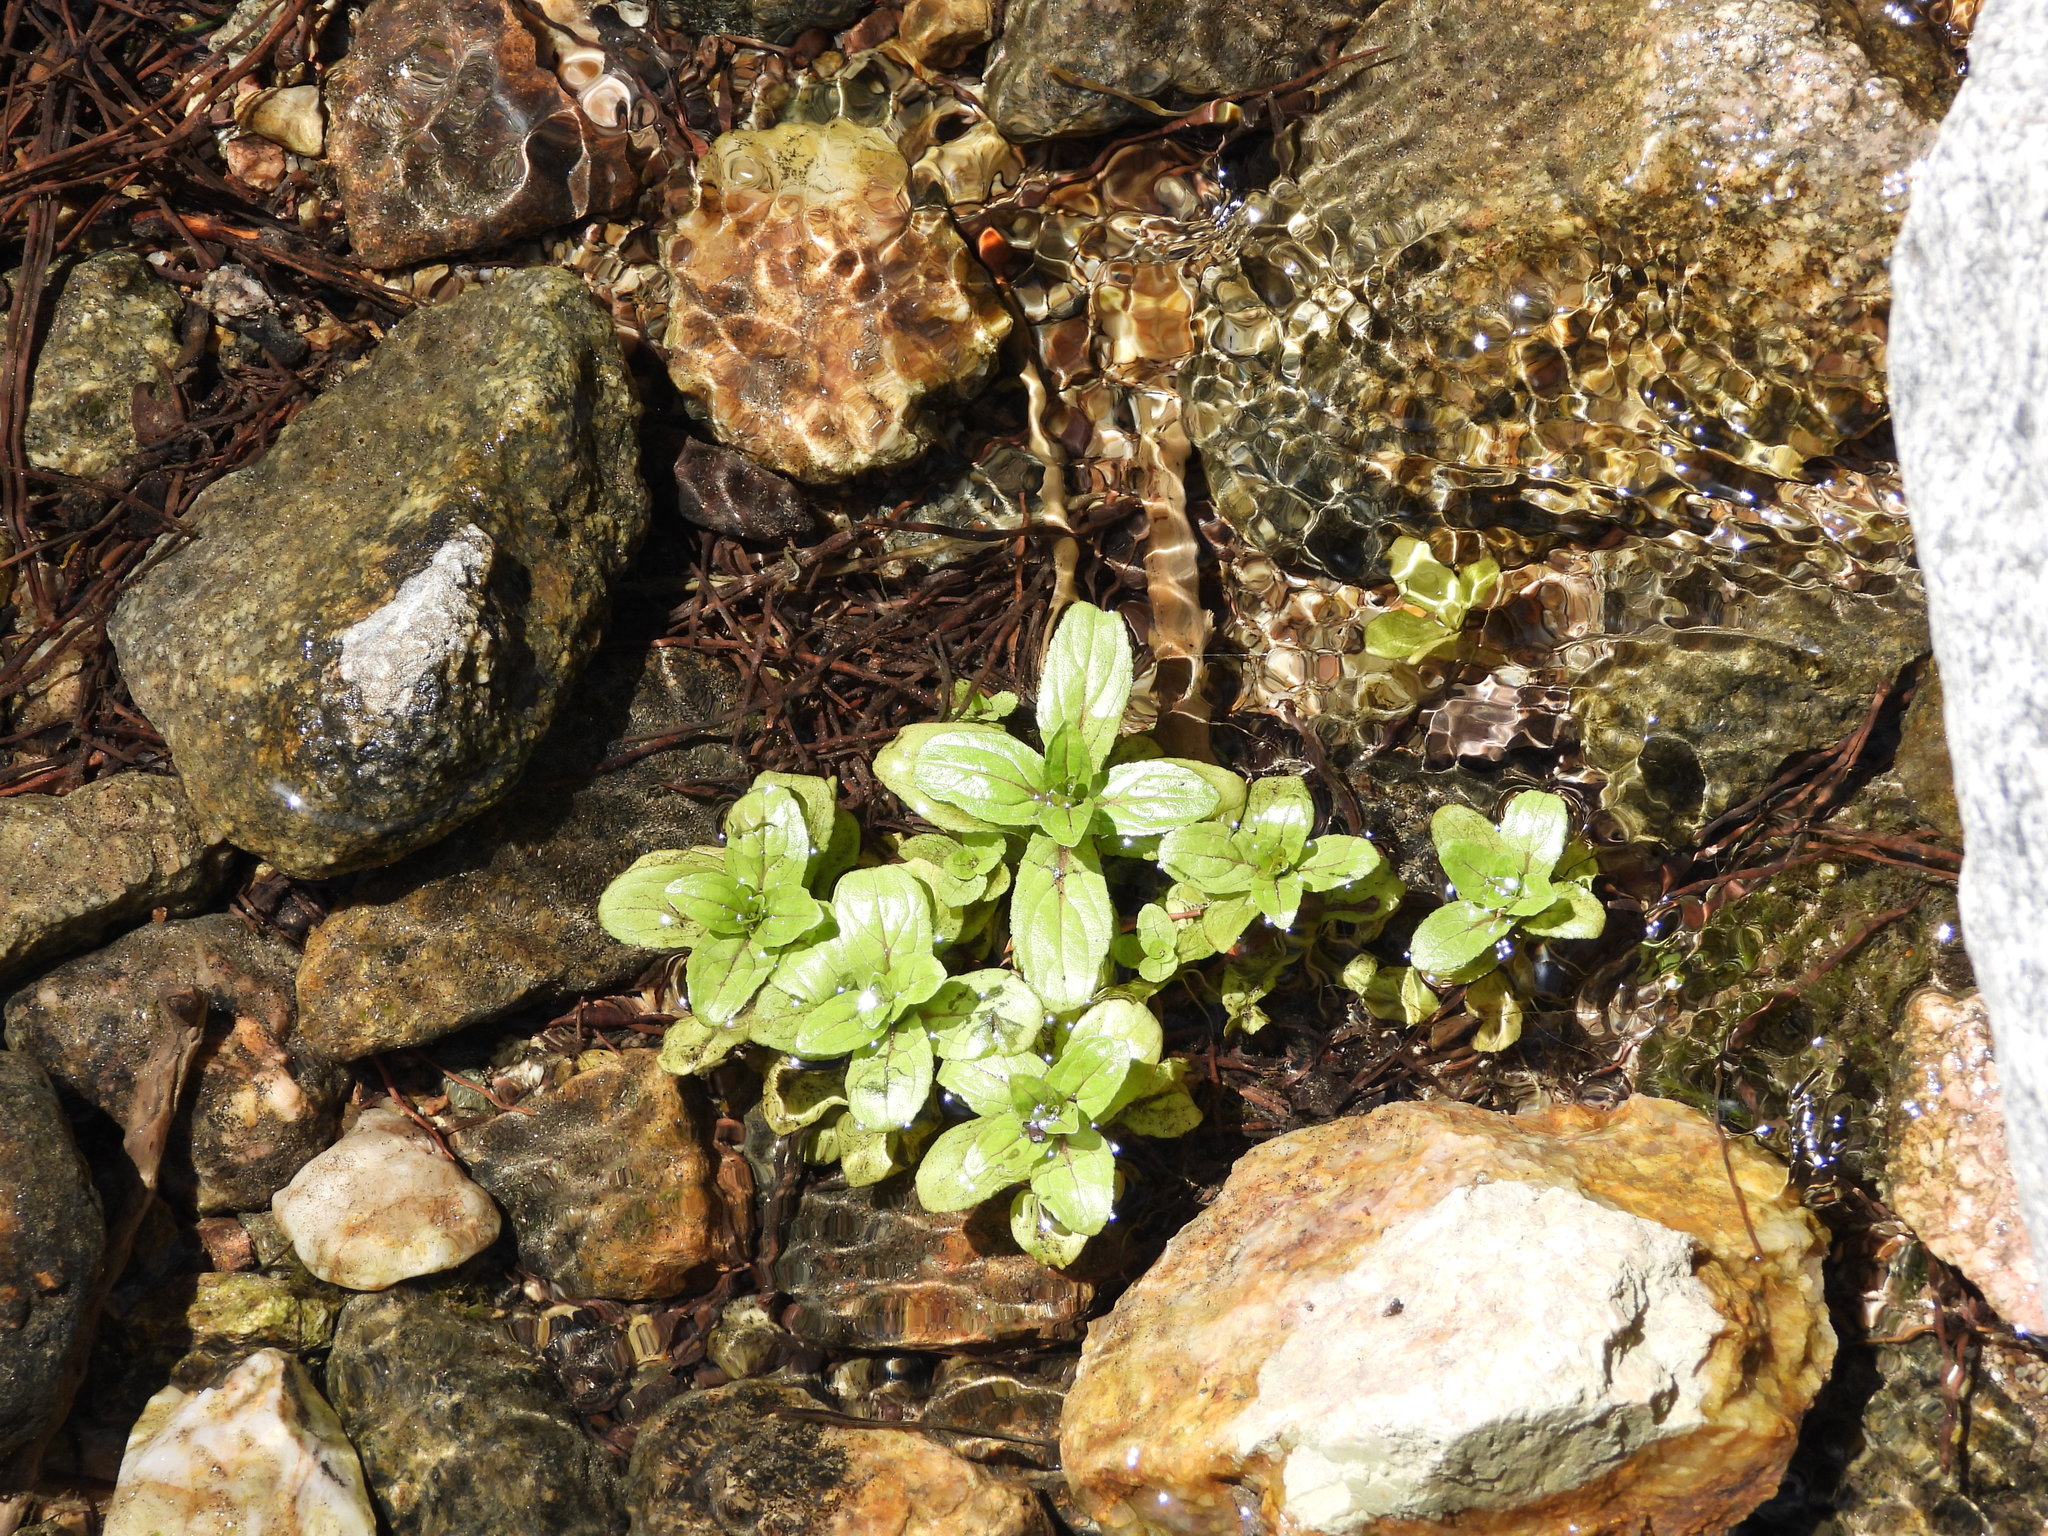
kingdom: Plantae
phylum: Tracheophyta
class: Magnoliopsida
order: Lamiales
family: Plantaginaceae
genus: Veronica
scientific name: Veronica anagallis-aquatica
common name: Water speedwell
